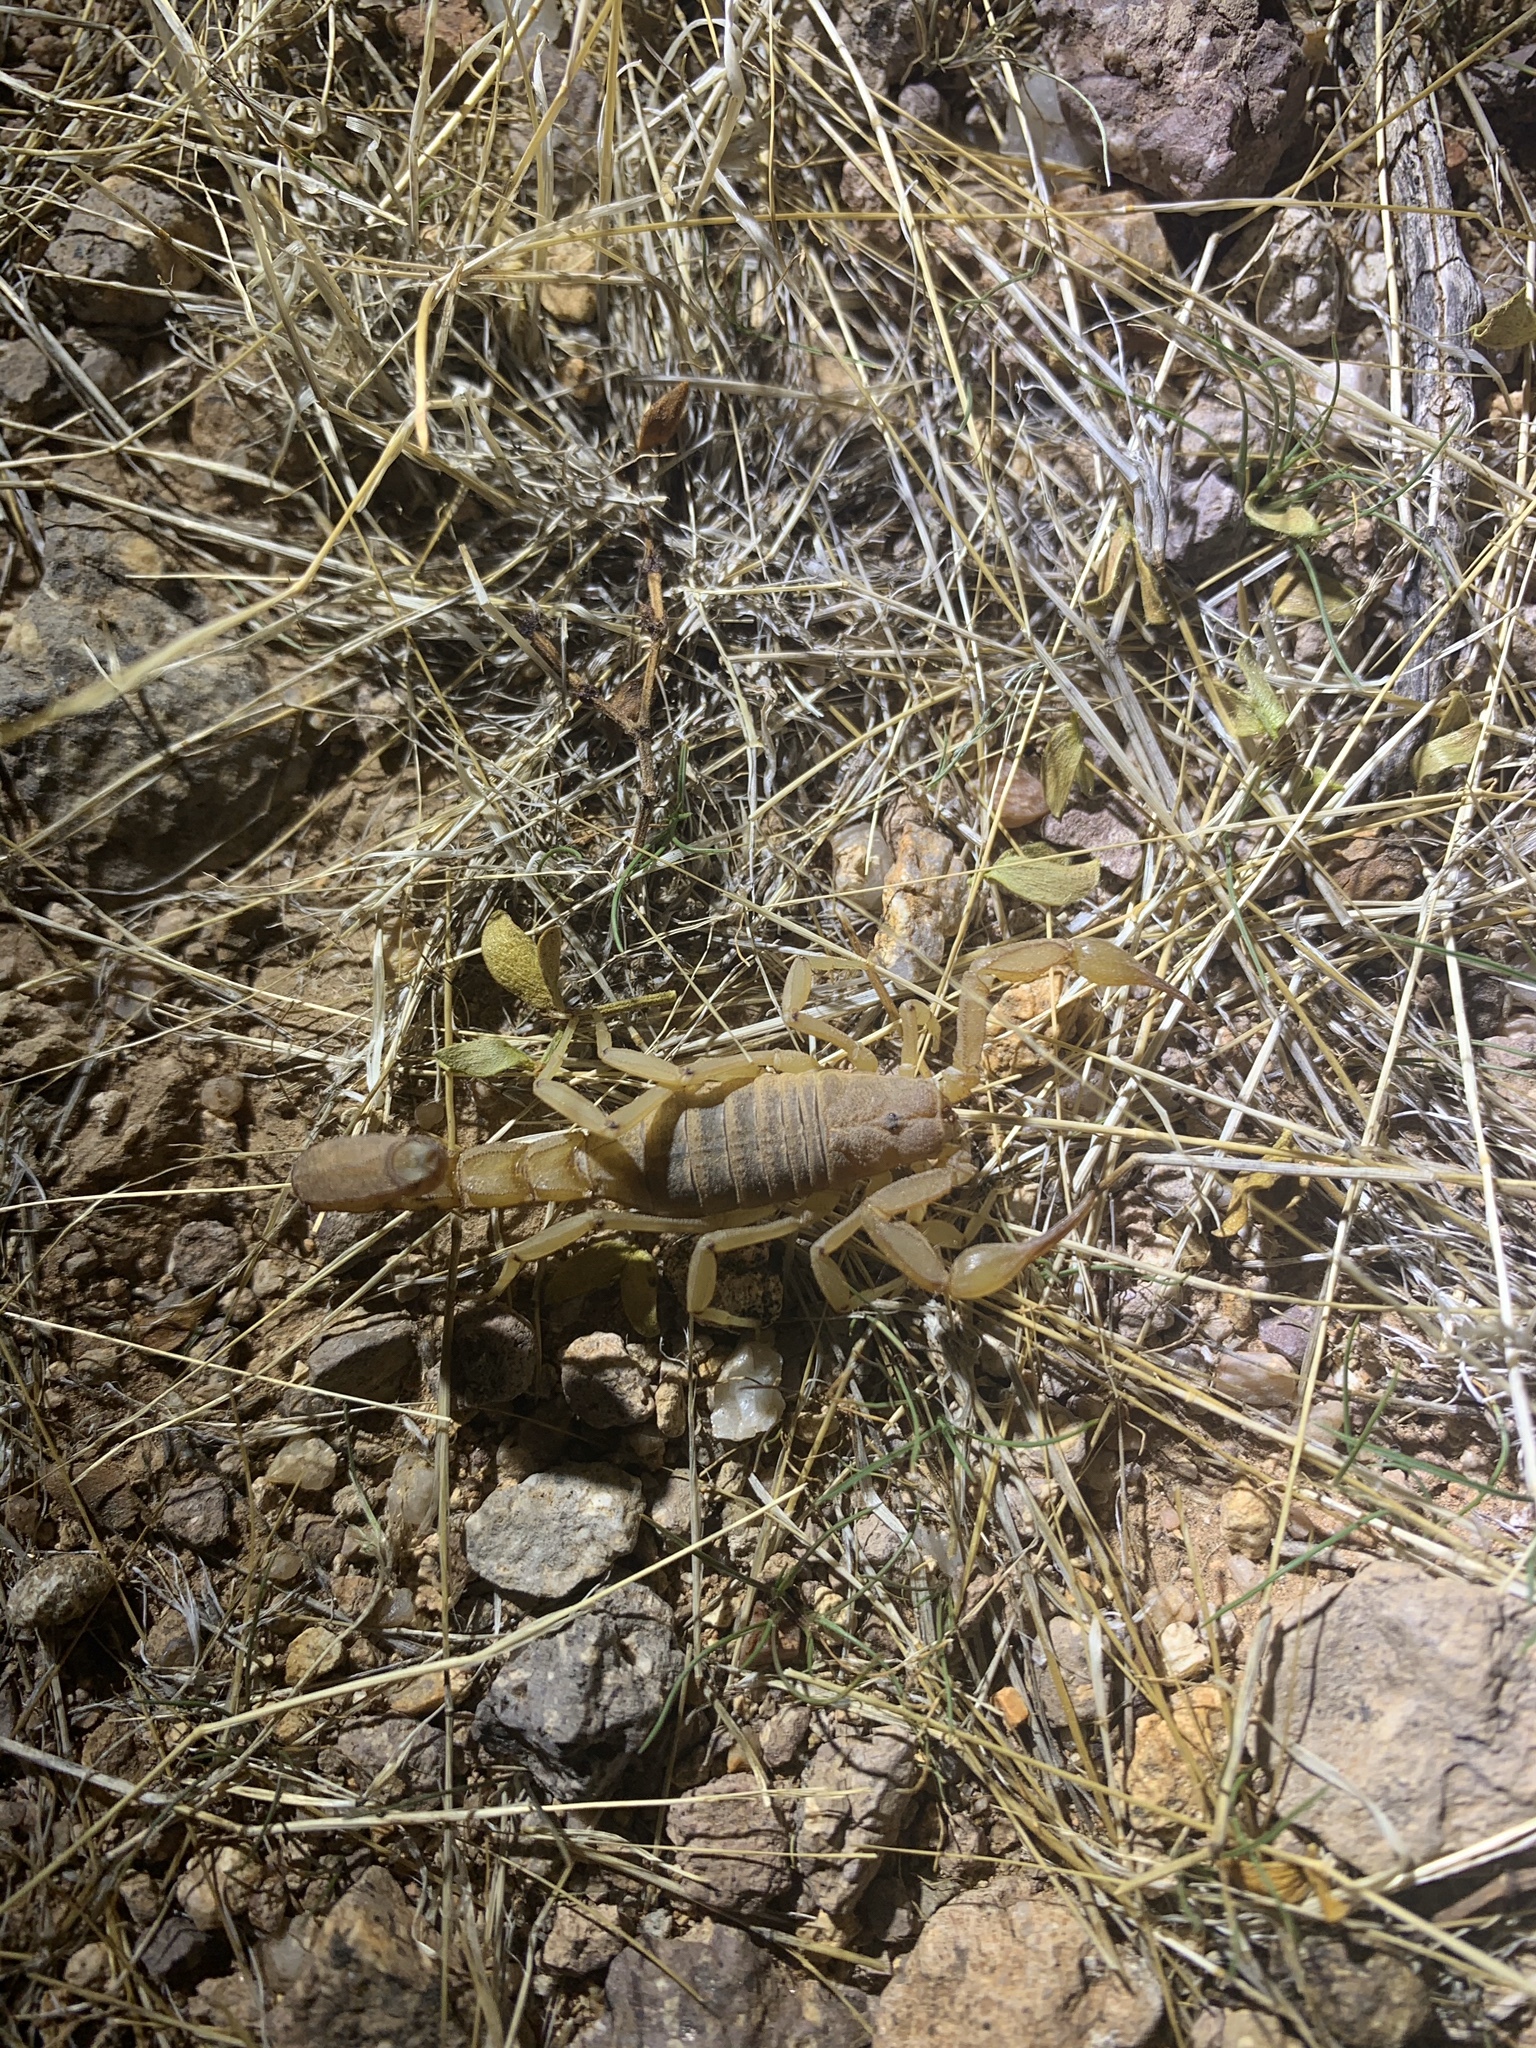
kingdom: Animalia
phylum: Arthropoda
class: Arachnida
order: Scorpiones
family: Vaejovidae
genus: Paravaejovis
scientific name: Paravaejovis spinigerus
